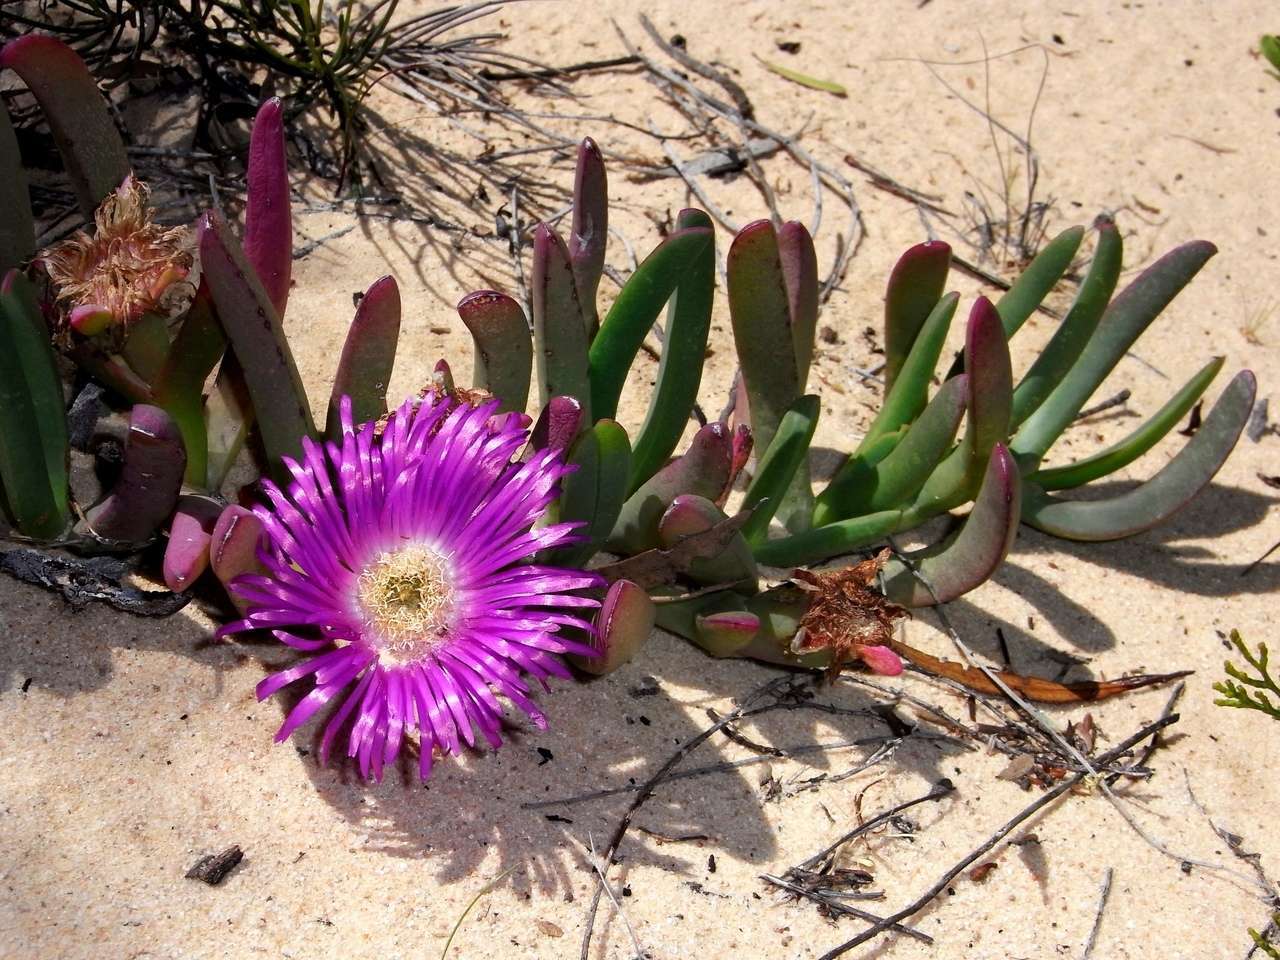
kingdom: Plantae
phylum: Tracheophyta
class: Magnoliopsida
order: Caryophyllales
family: Aizoaceae
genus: Carpobrotus
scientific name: Carpobrotus modestus
